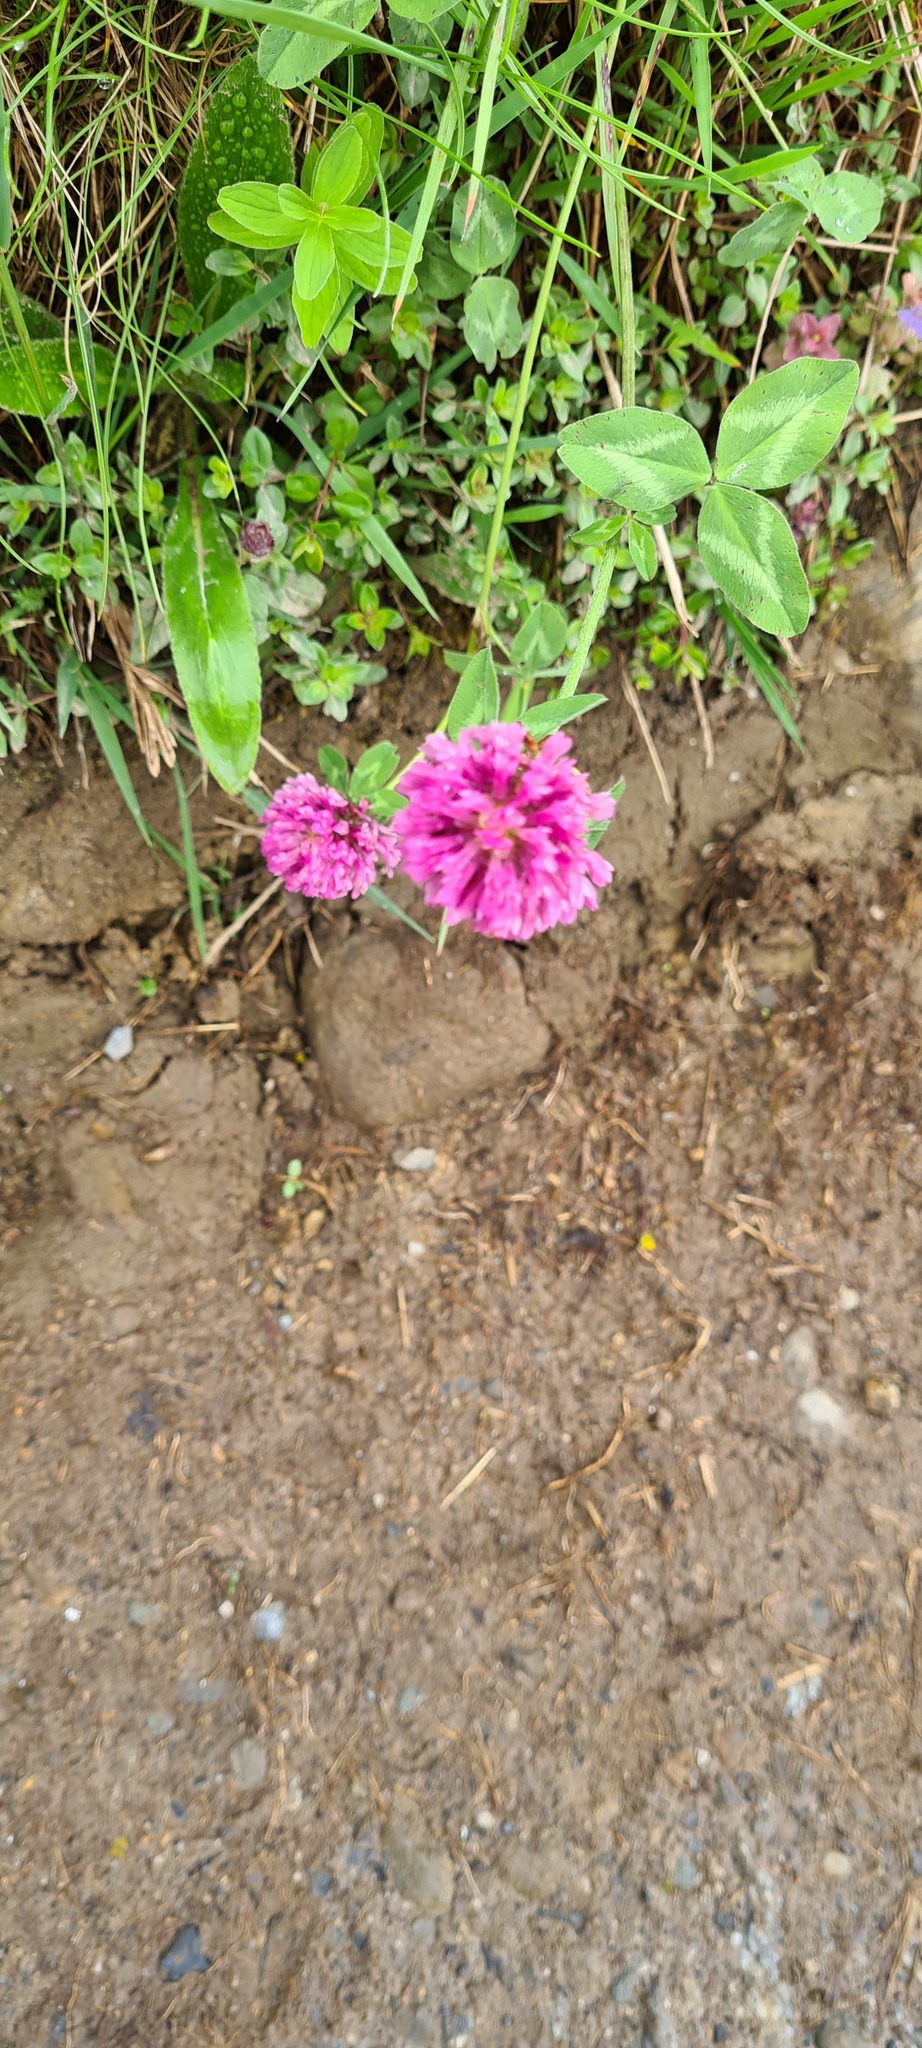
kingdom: Plantae
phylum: Tracheophyta
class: Magnoliopsida
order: Fabales
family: Fabaceae
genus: Trifolium
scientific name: Trifolium pratense
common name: Red clover
